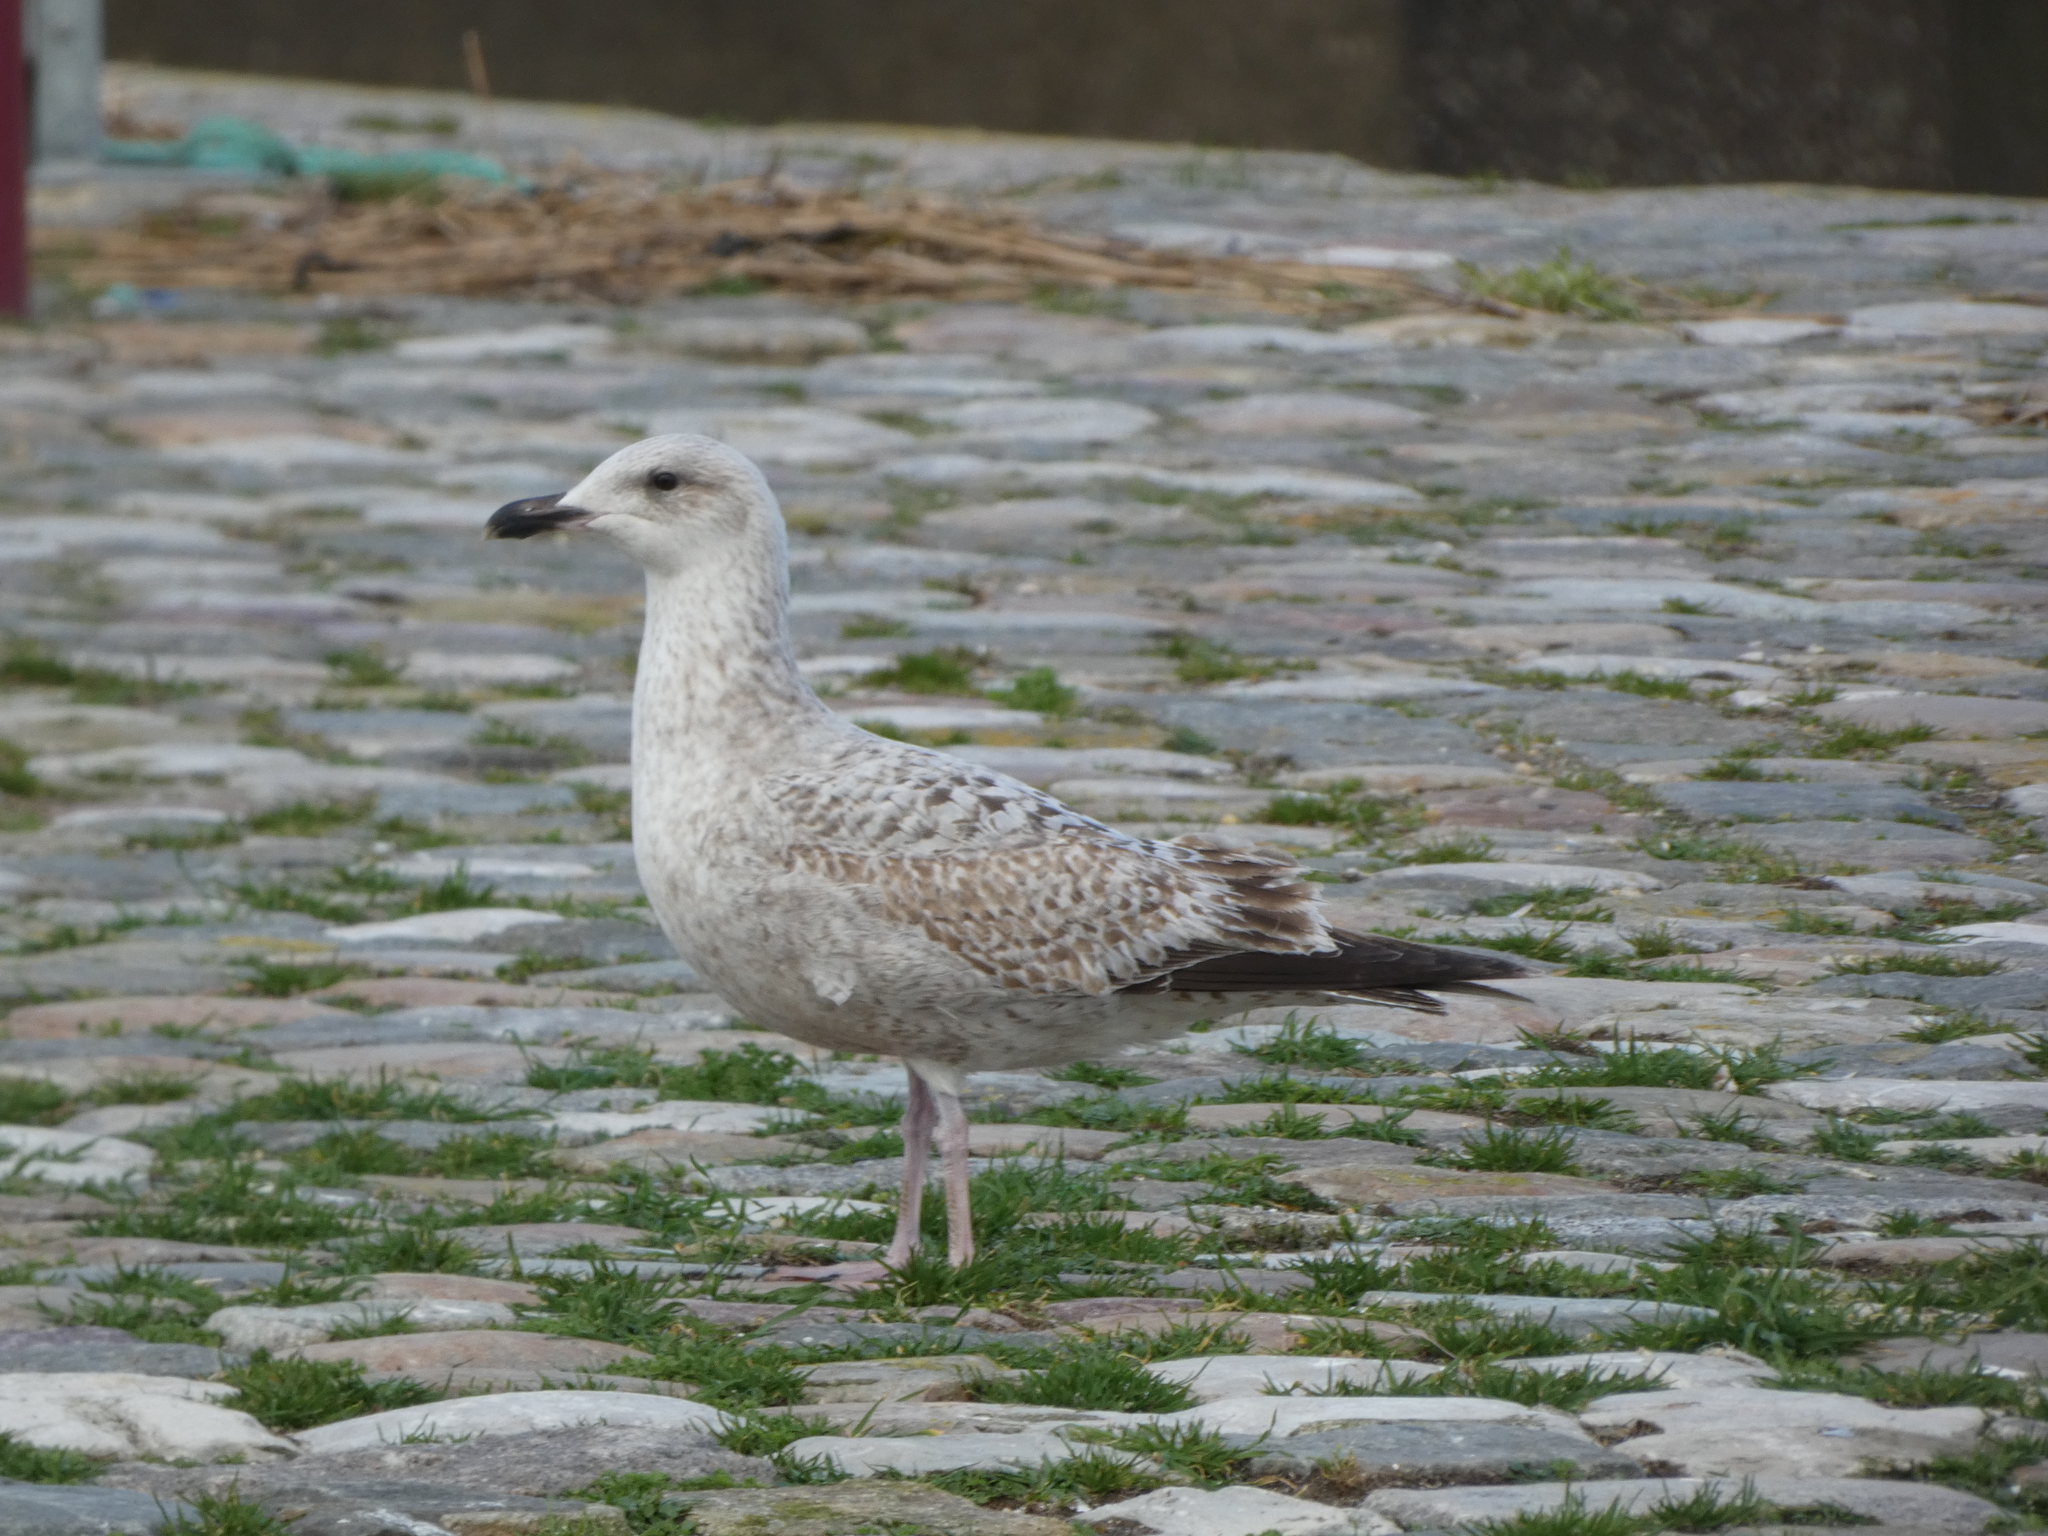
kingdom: Animalia
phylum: Chordata
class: Aves
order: Charadriiformes
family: Laridae
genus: Larus
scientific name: Larus argentatus
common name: Herring gull
